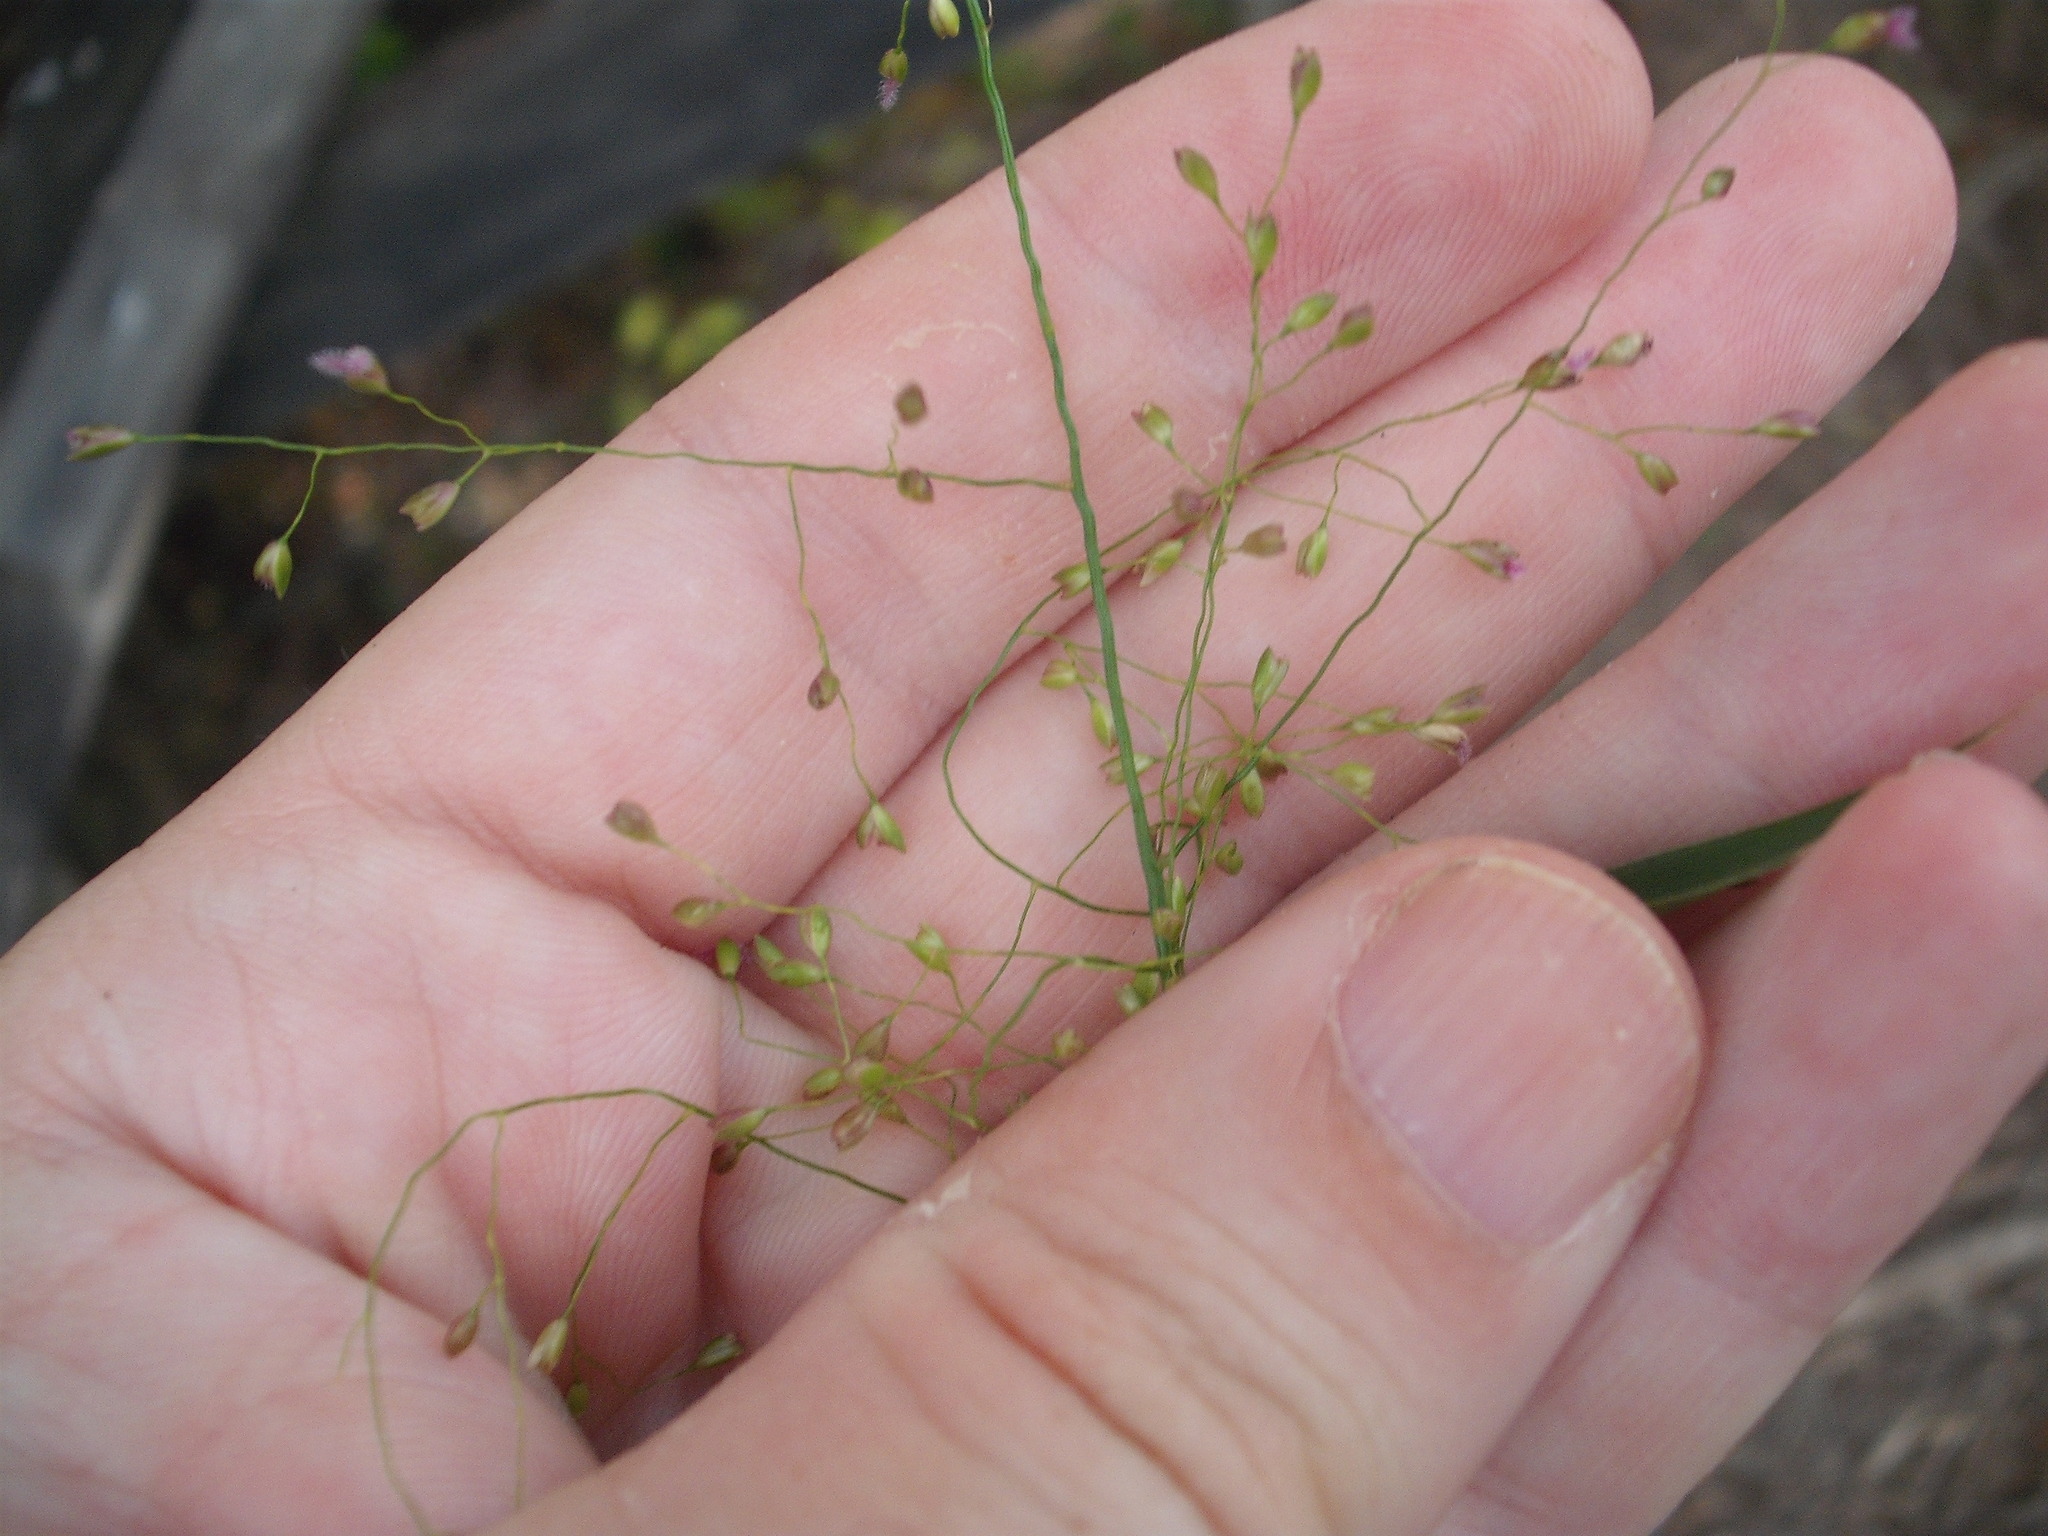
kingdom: Plantae
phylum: Tracheophyta
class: Liliopsida
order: Poales
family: Poaceae
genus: Isachne
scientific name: Isachne globosa
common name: Swamp millet
